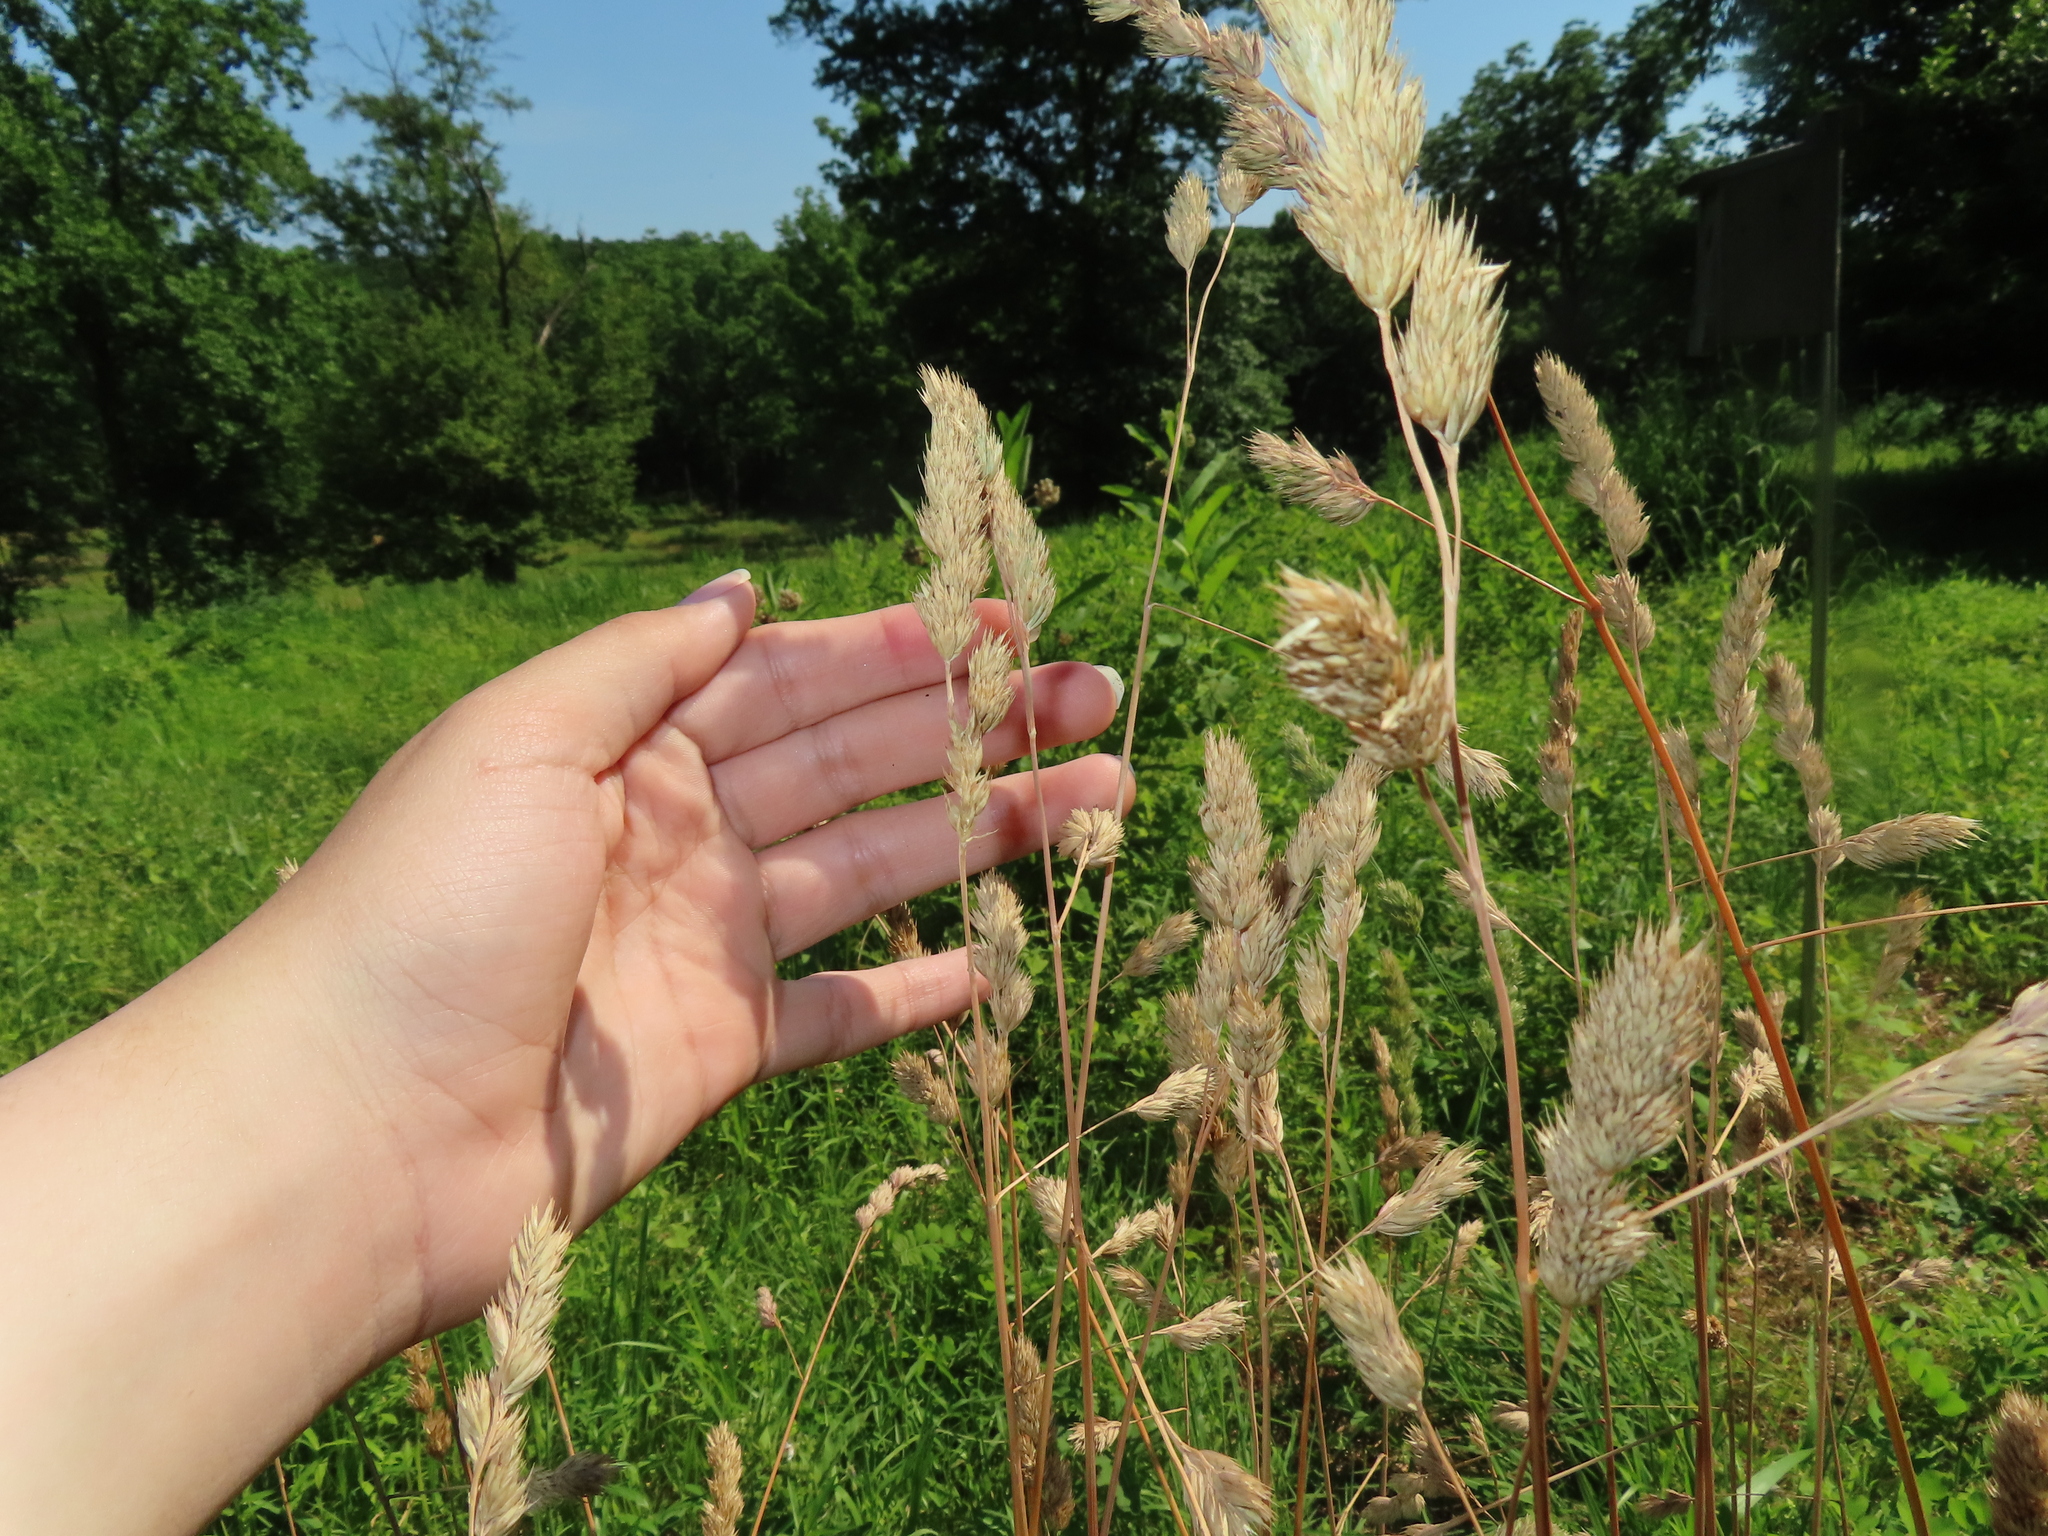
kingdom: Plantae
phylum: Tracheophyta
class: Liliopsida
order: Poales
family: Poaceae
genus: Dactylis
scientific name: Dactylis glomerata
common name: Orchardgrass
